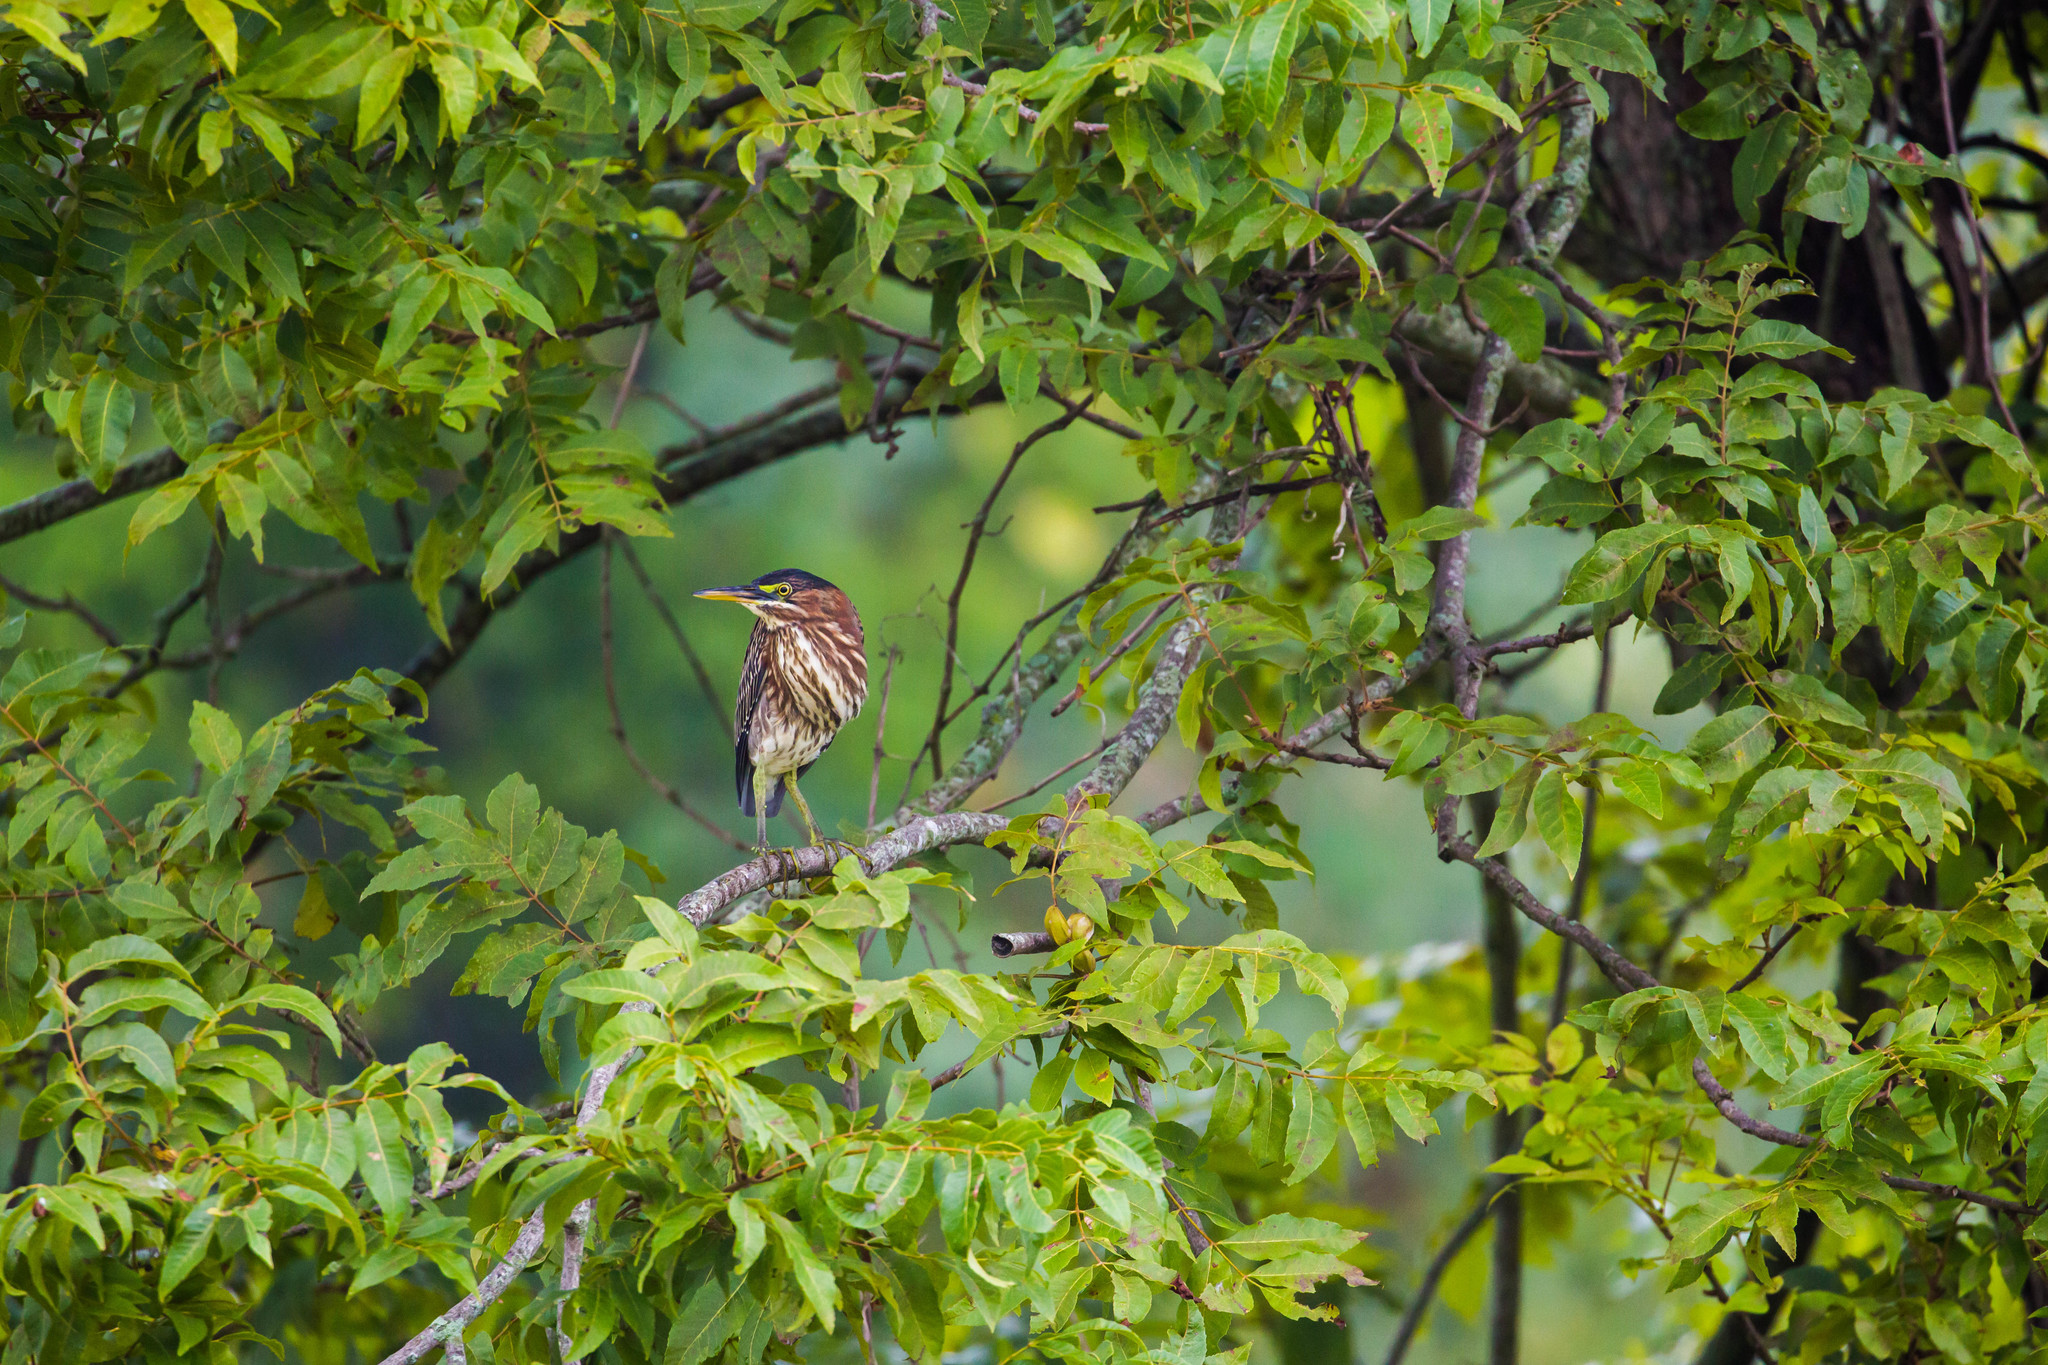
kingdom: Animalia
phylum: Chordata
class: Aves
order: Pelecaniformes
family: Ardeidae
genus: Butorides
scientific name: Butorides virescens
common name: Green heron
